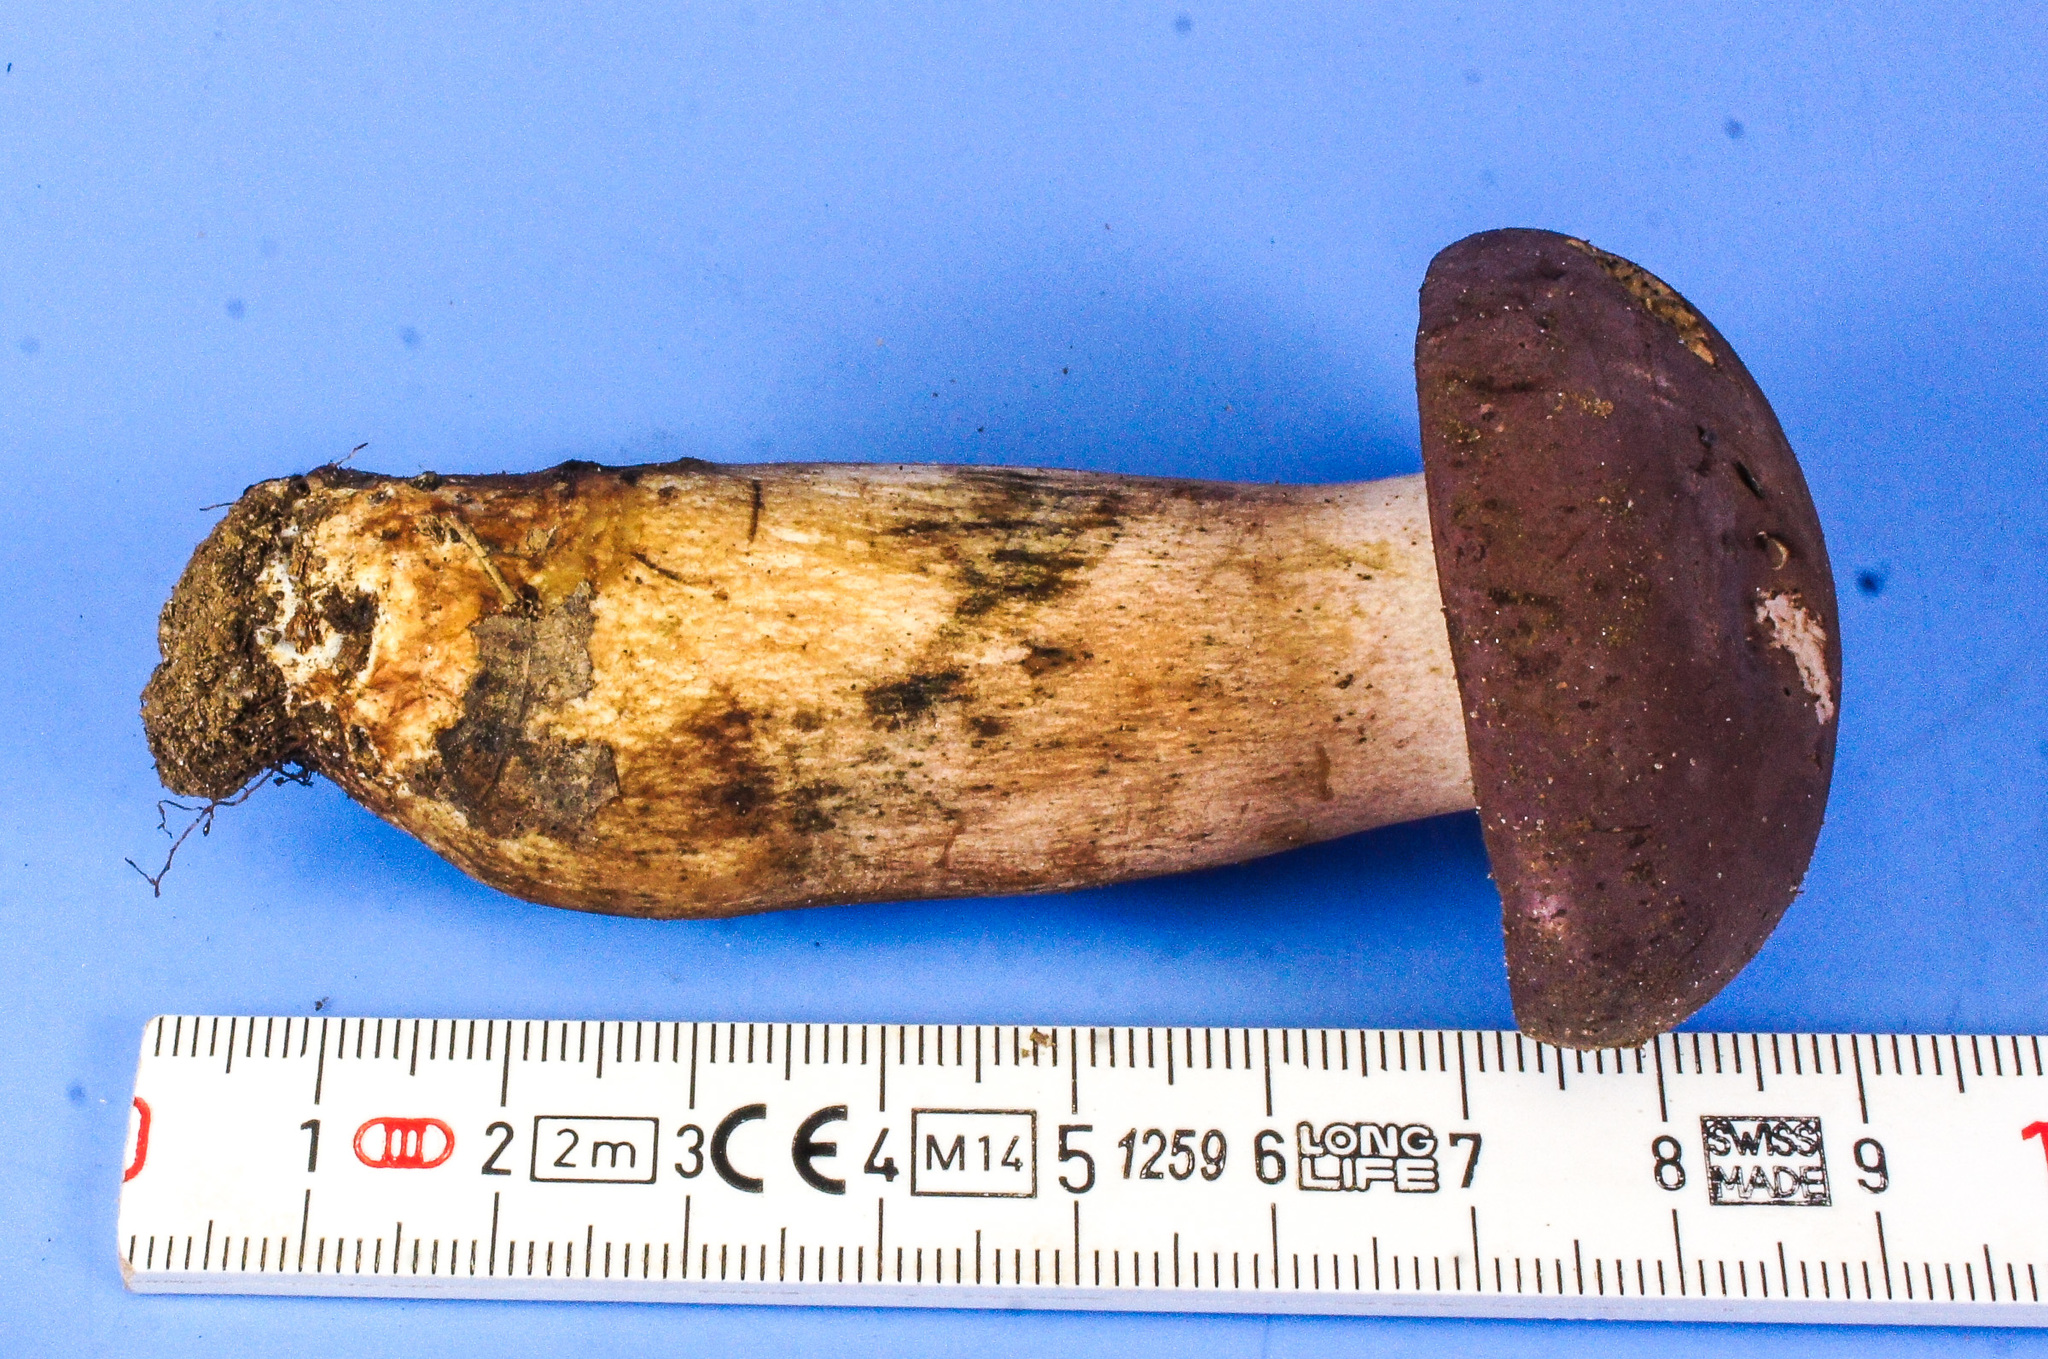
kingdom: Fungi
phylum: Basidiomycota
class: Agaricomycetes
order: Boletales
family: Boletaceae
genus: Tylopilus
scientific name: Tylopilus rubrobrunneus
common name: Reddish brown bitter bolete
